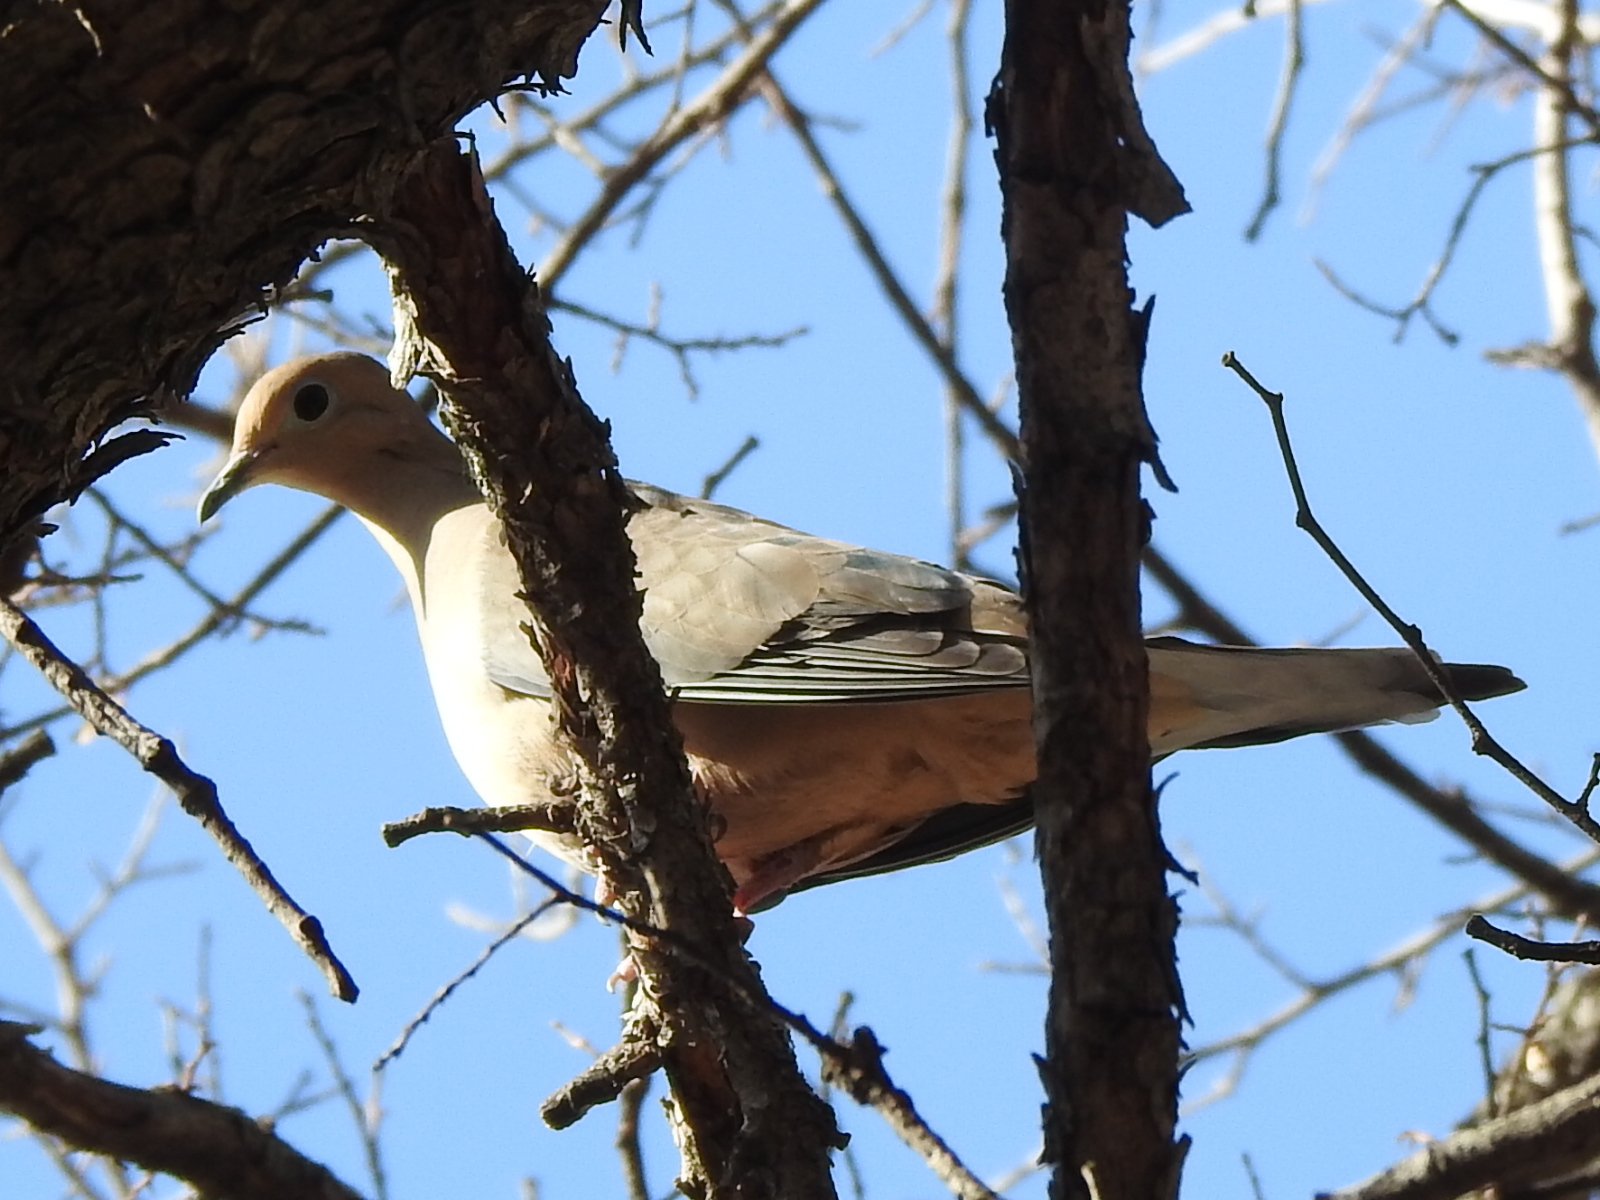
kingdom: Animalia
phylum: Chordata
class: Aves
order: Columbiformes
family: Columbidae
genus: Zenaida
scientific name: Zenaida macroura
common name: Mourning dove
